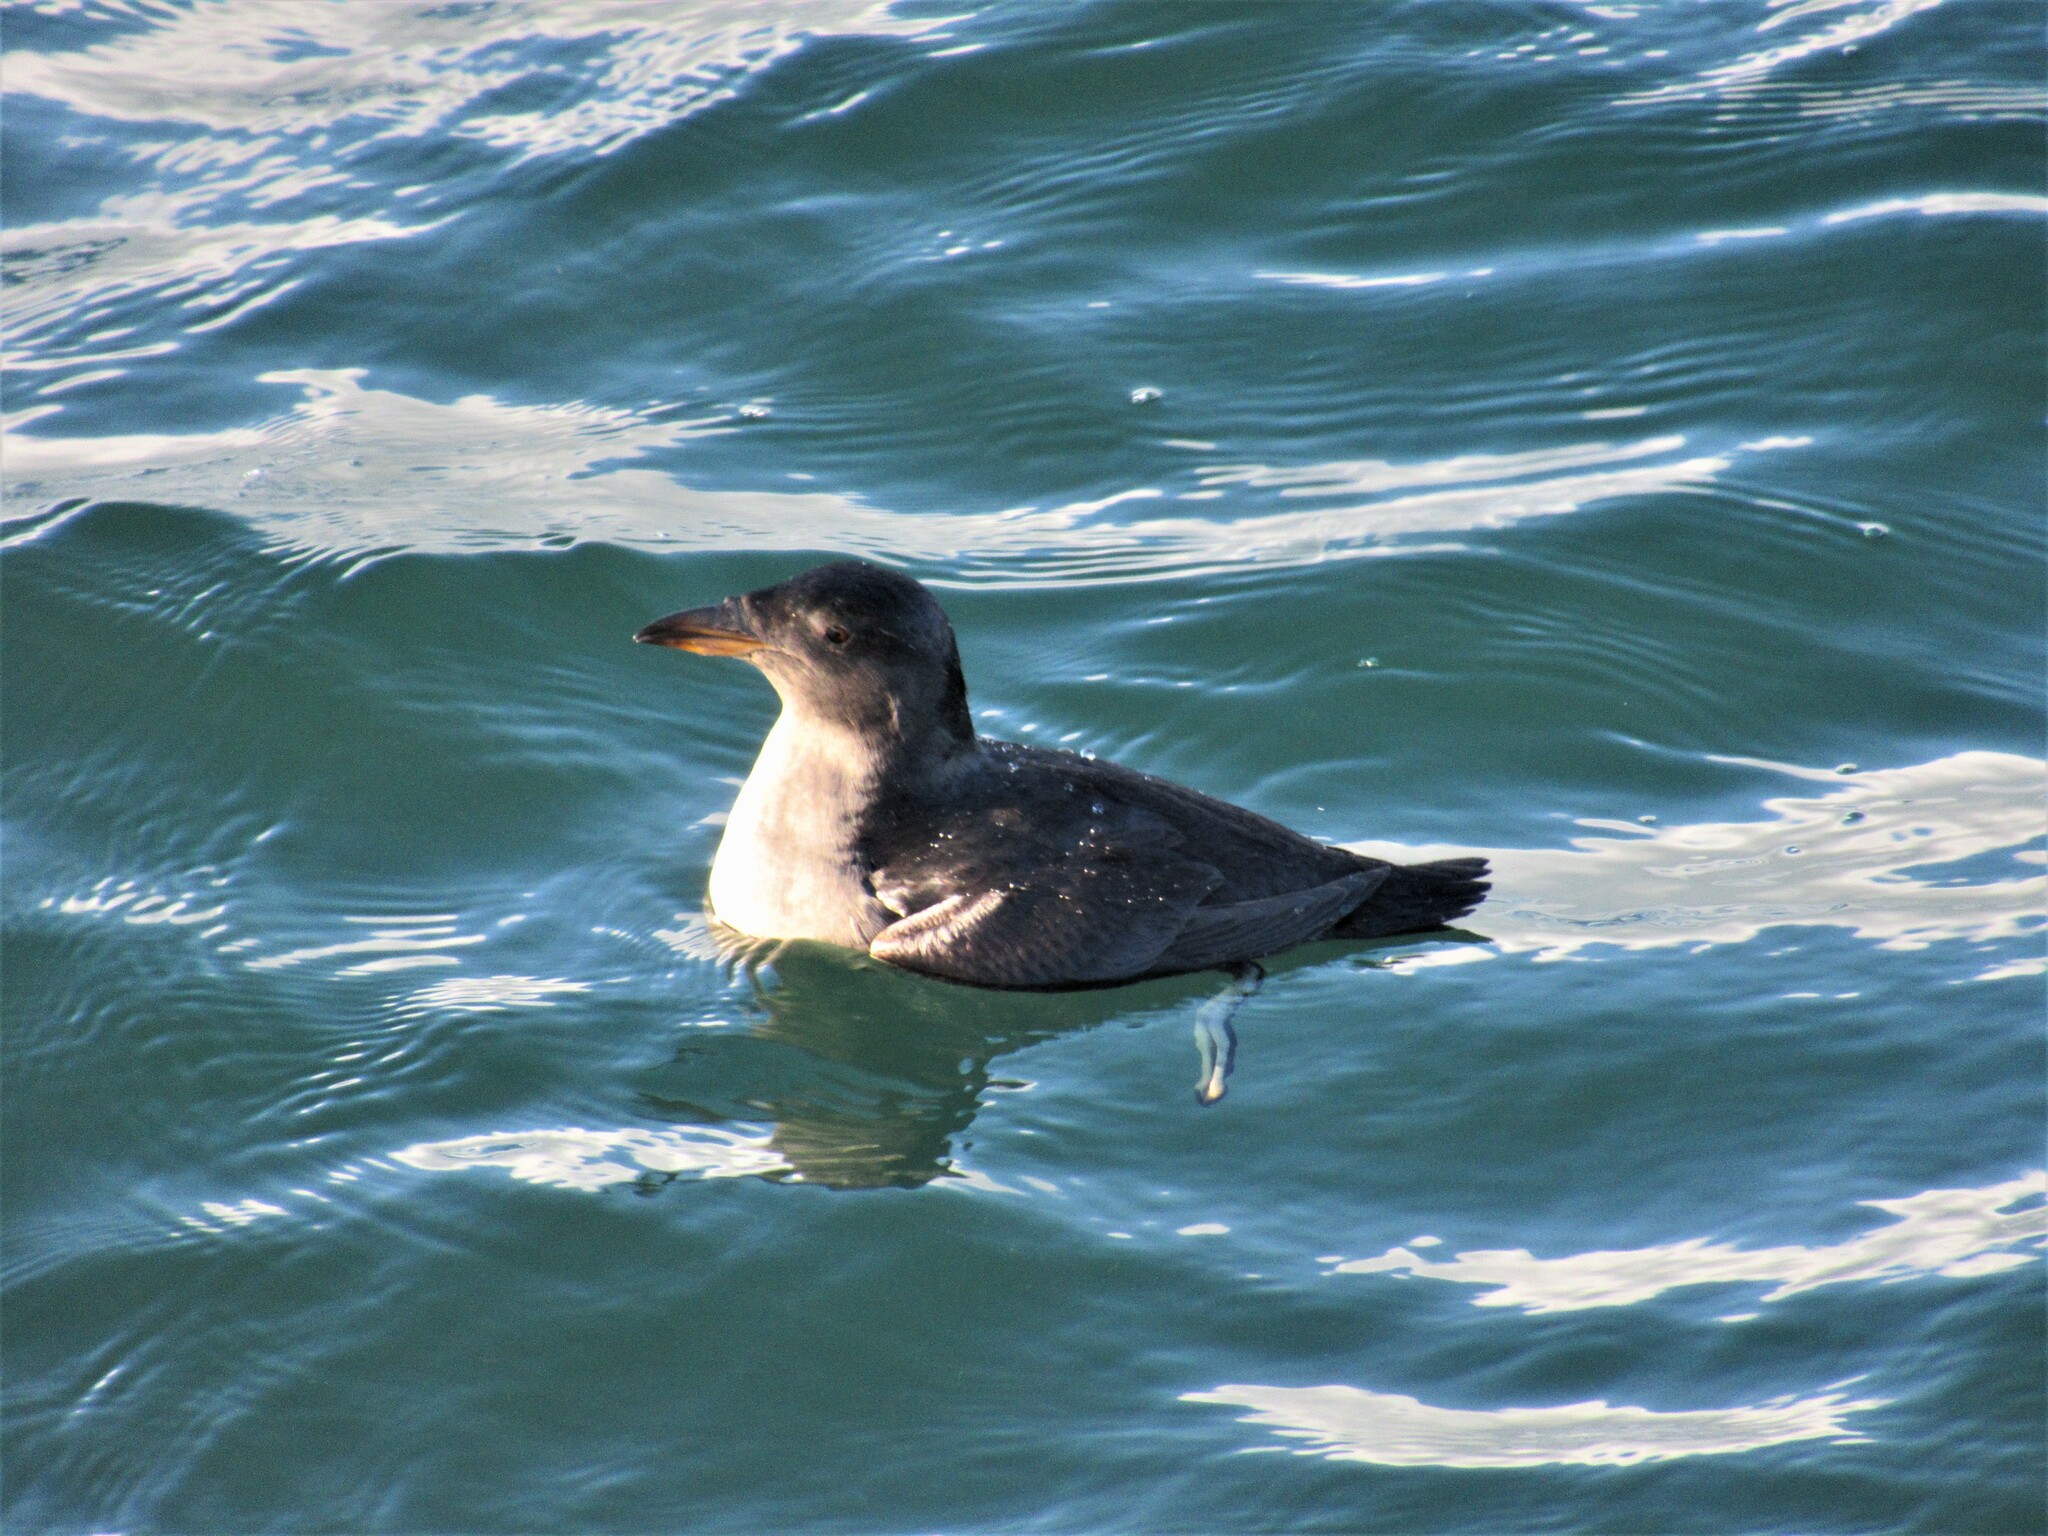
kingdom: Animalia
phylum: Chordata
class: Aves
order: Charadriiformes
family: Alcidae
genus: Cerorhinca
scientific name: Cerorhinca monocerata
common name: Rhinoceros auklet
